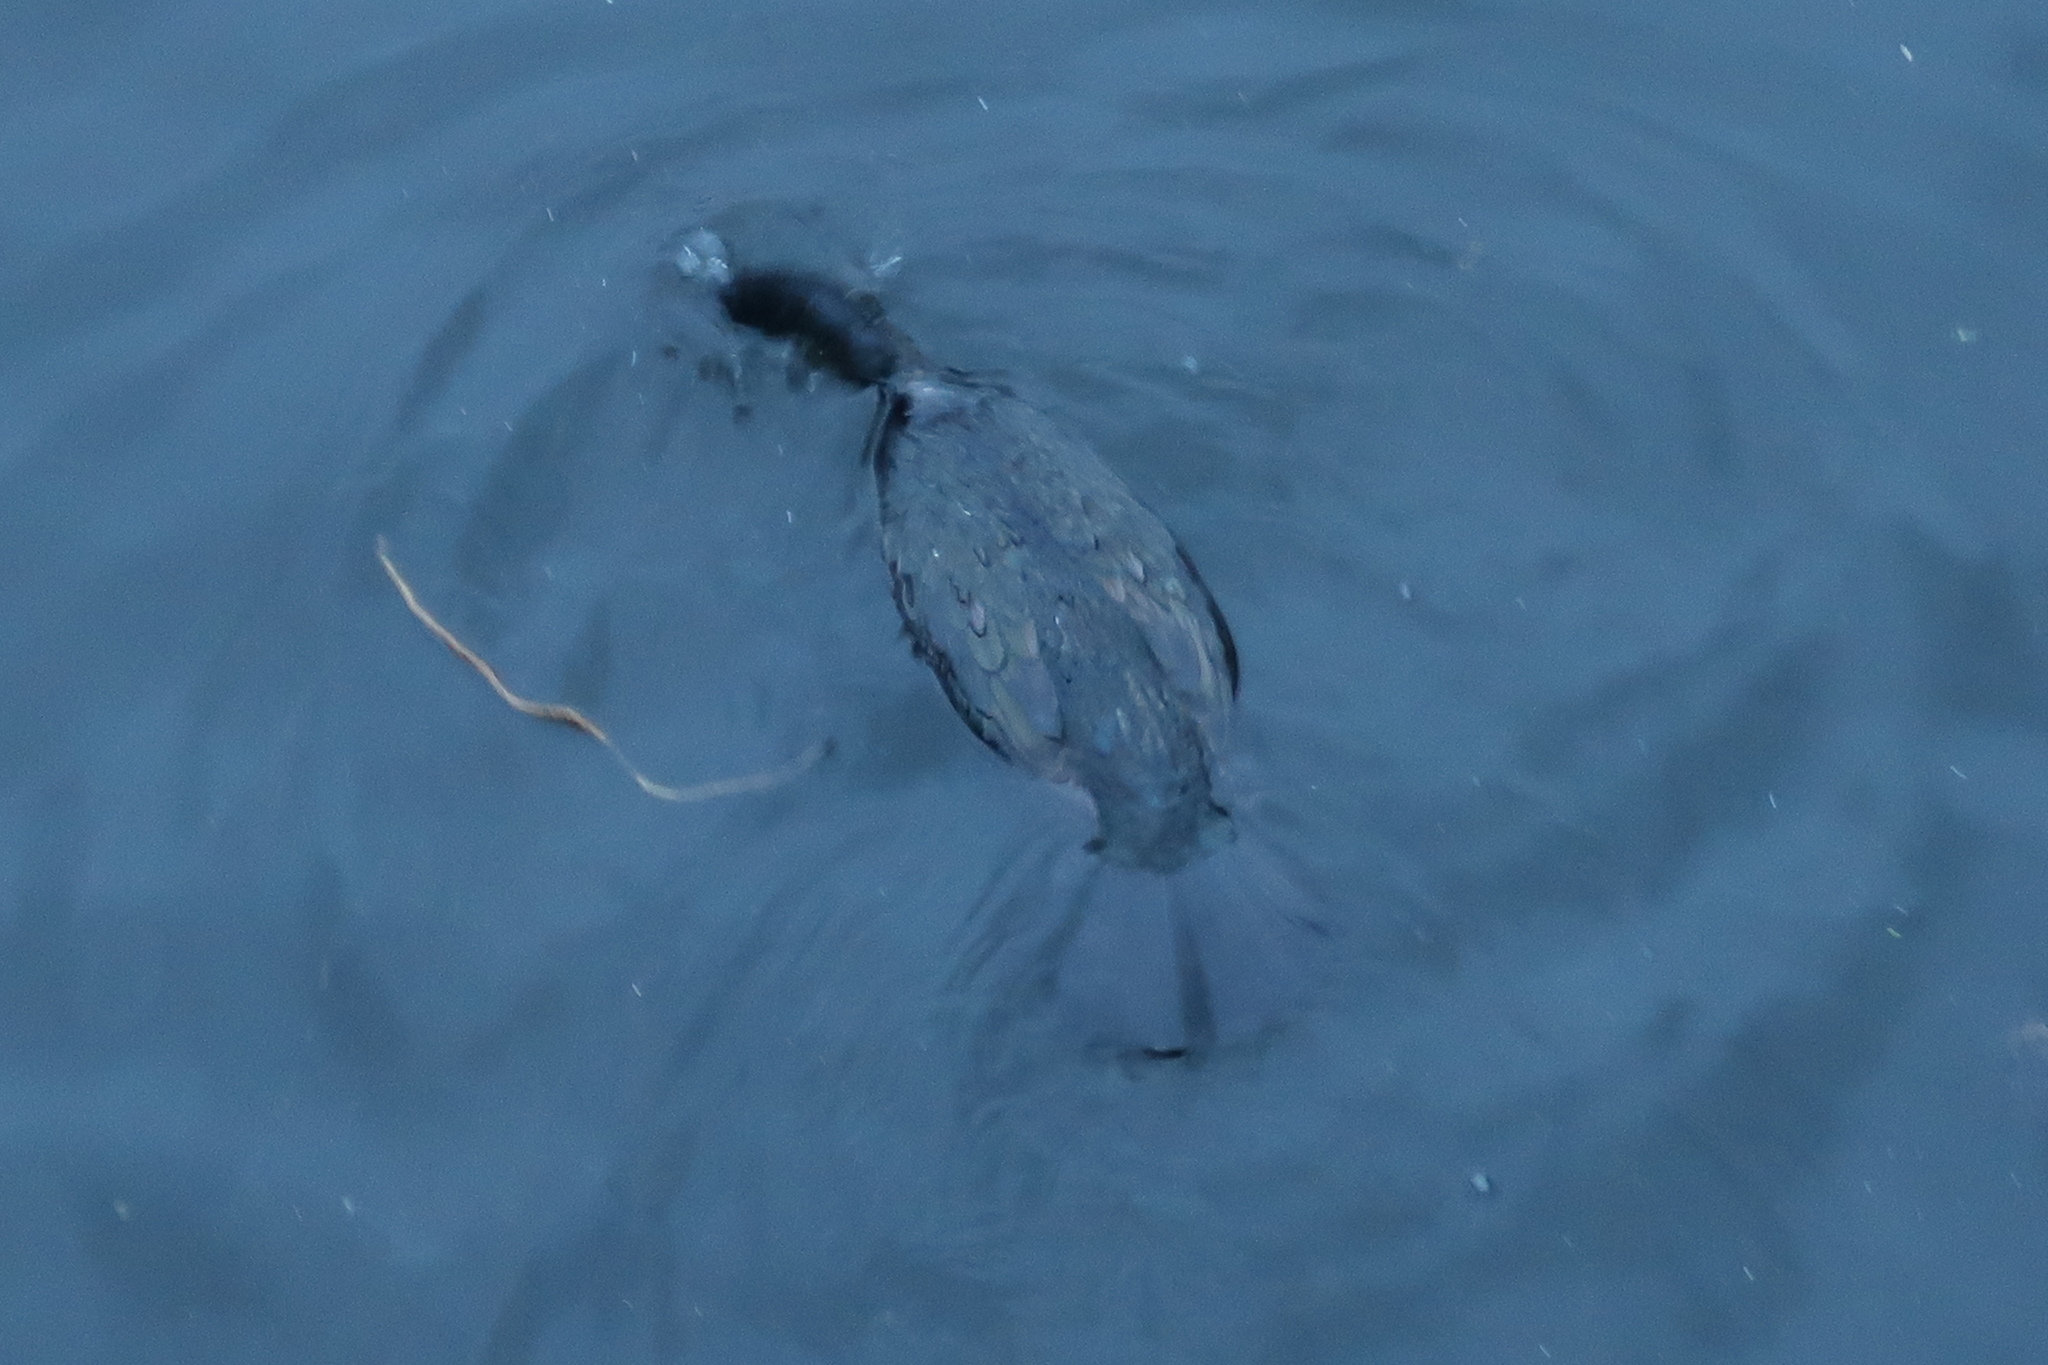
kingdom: Animalia
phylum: Chordata
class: Aves
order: Suliformes
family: Phalacrocoracidae
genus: Phalacrocorax
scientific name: Phalacrocorax aristotelis
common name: European shag
